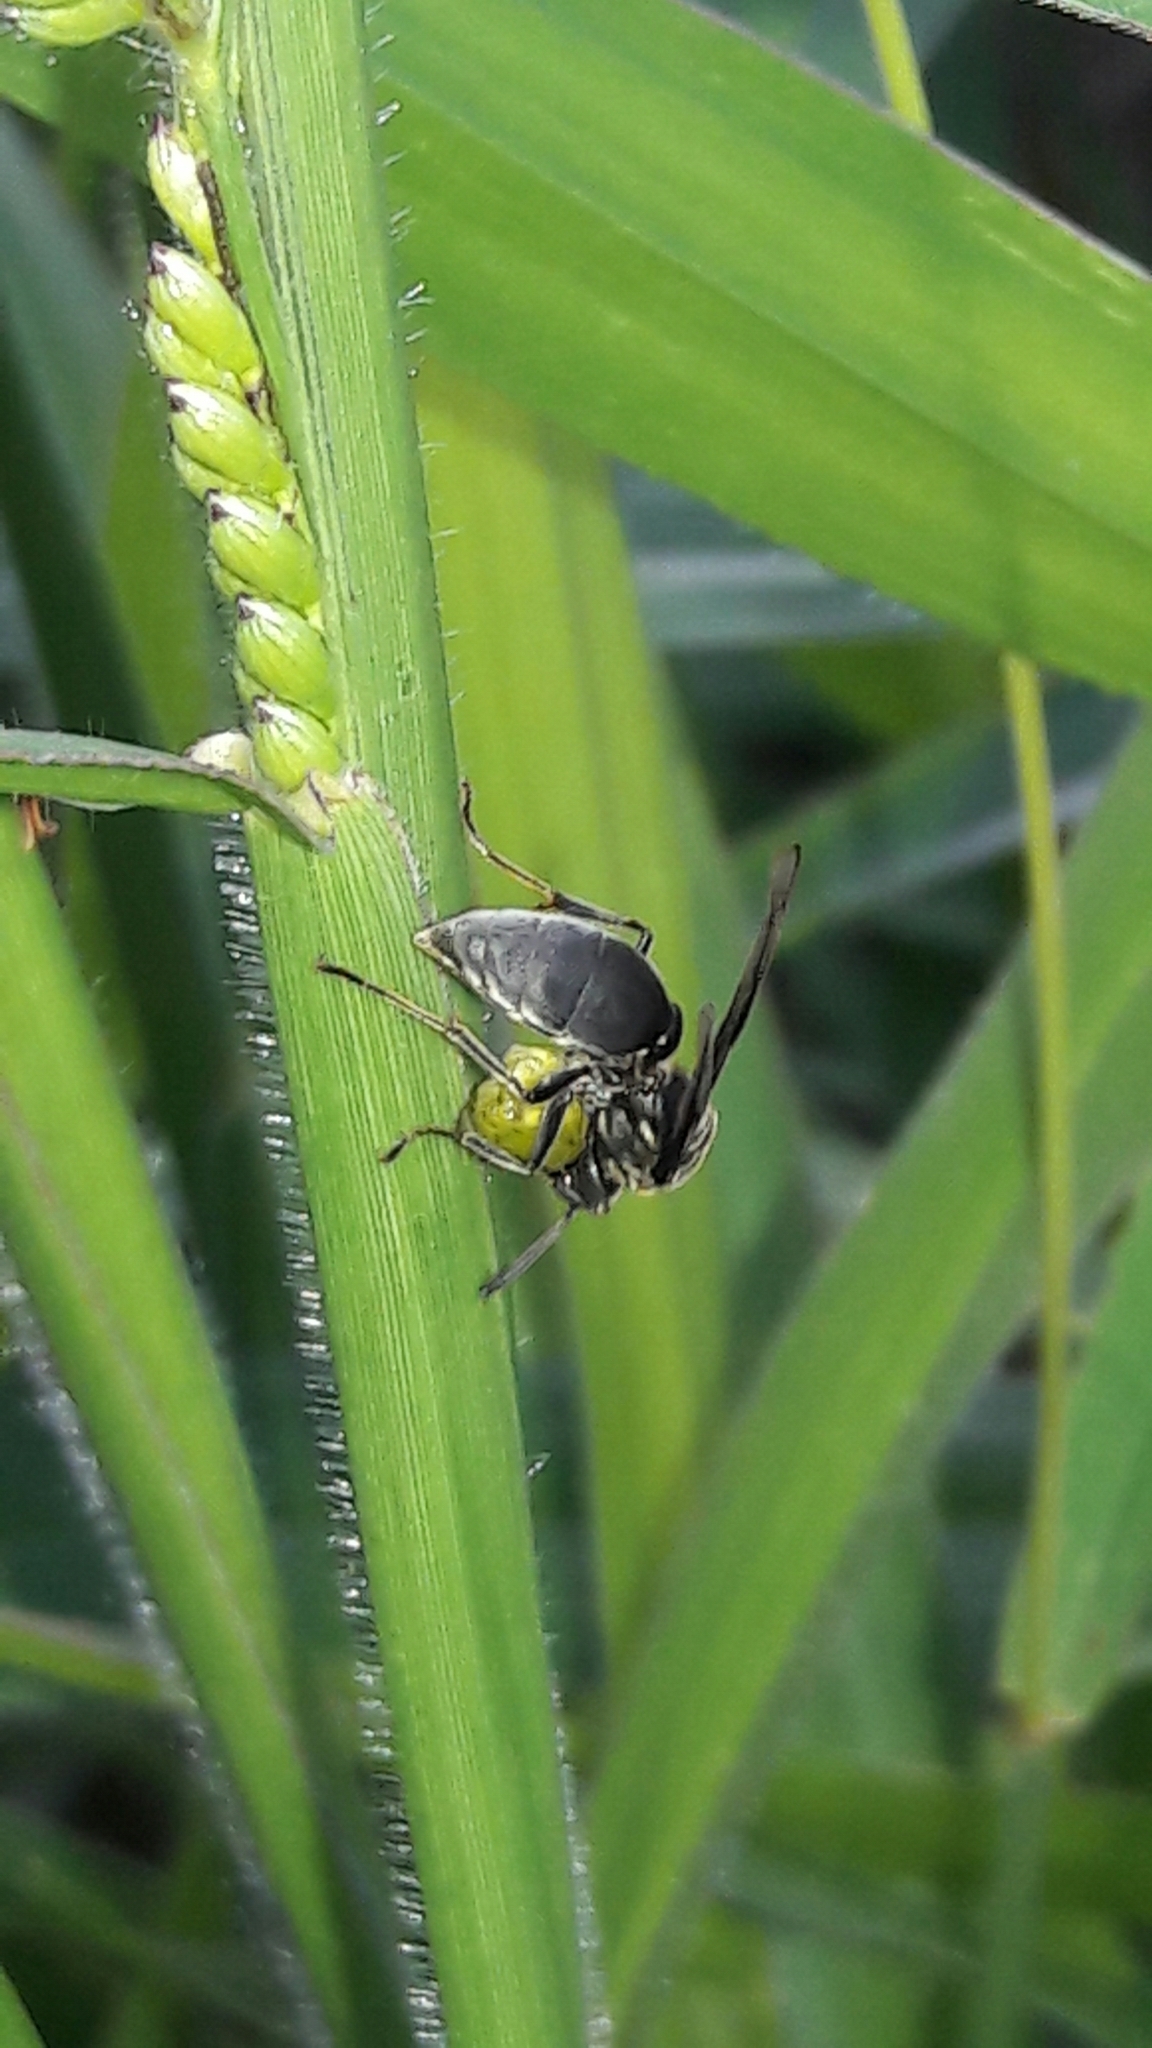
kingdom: Animalia
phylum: Arthropoda
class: Insecta
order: Hymenoptera
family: Eumenidae
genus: Polybia
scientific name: Polybia ignobilis
